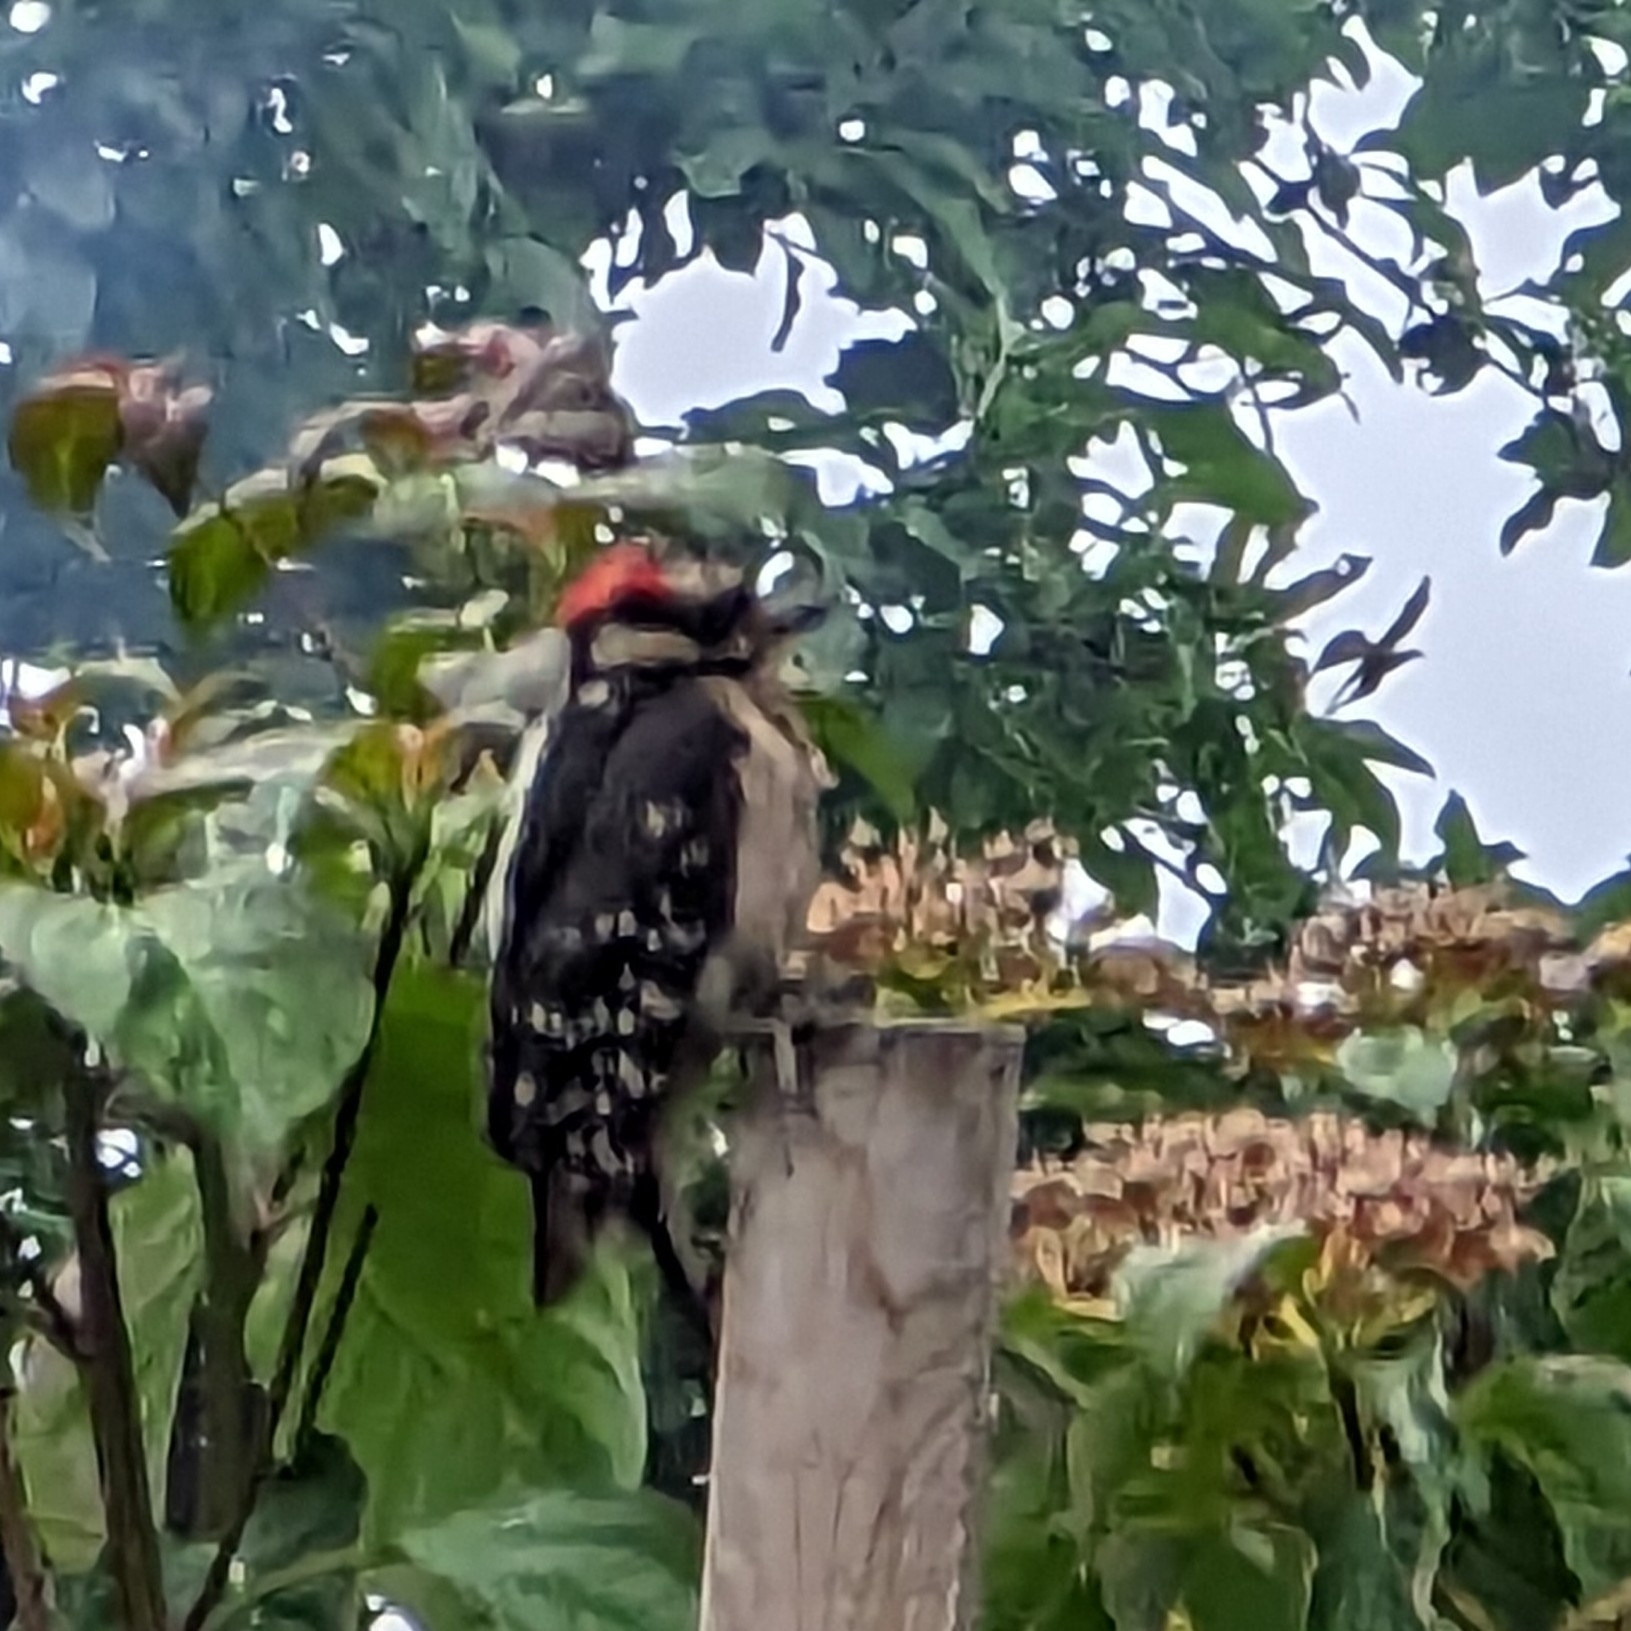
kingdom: Animalia
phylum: Chordata
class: Aves
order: Piciformes
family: Picidae
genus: Dryobates
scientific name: Dryobates pubescens
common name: Downy woodpecker
